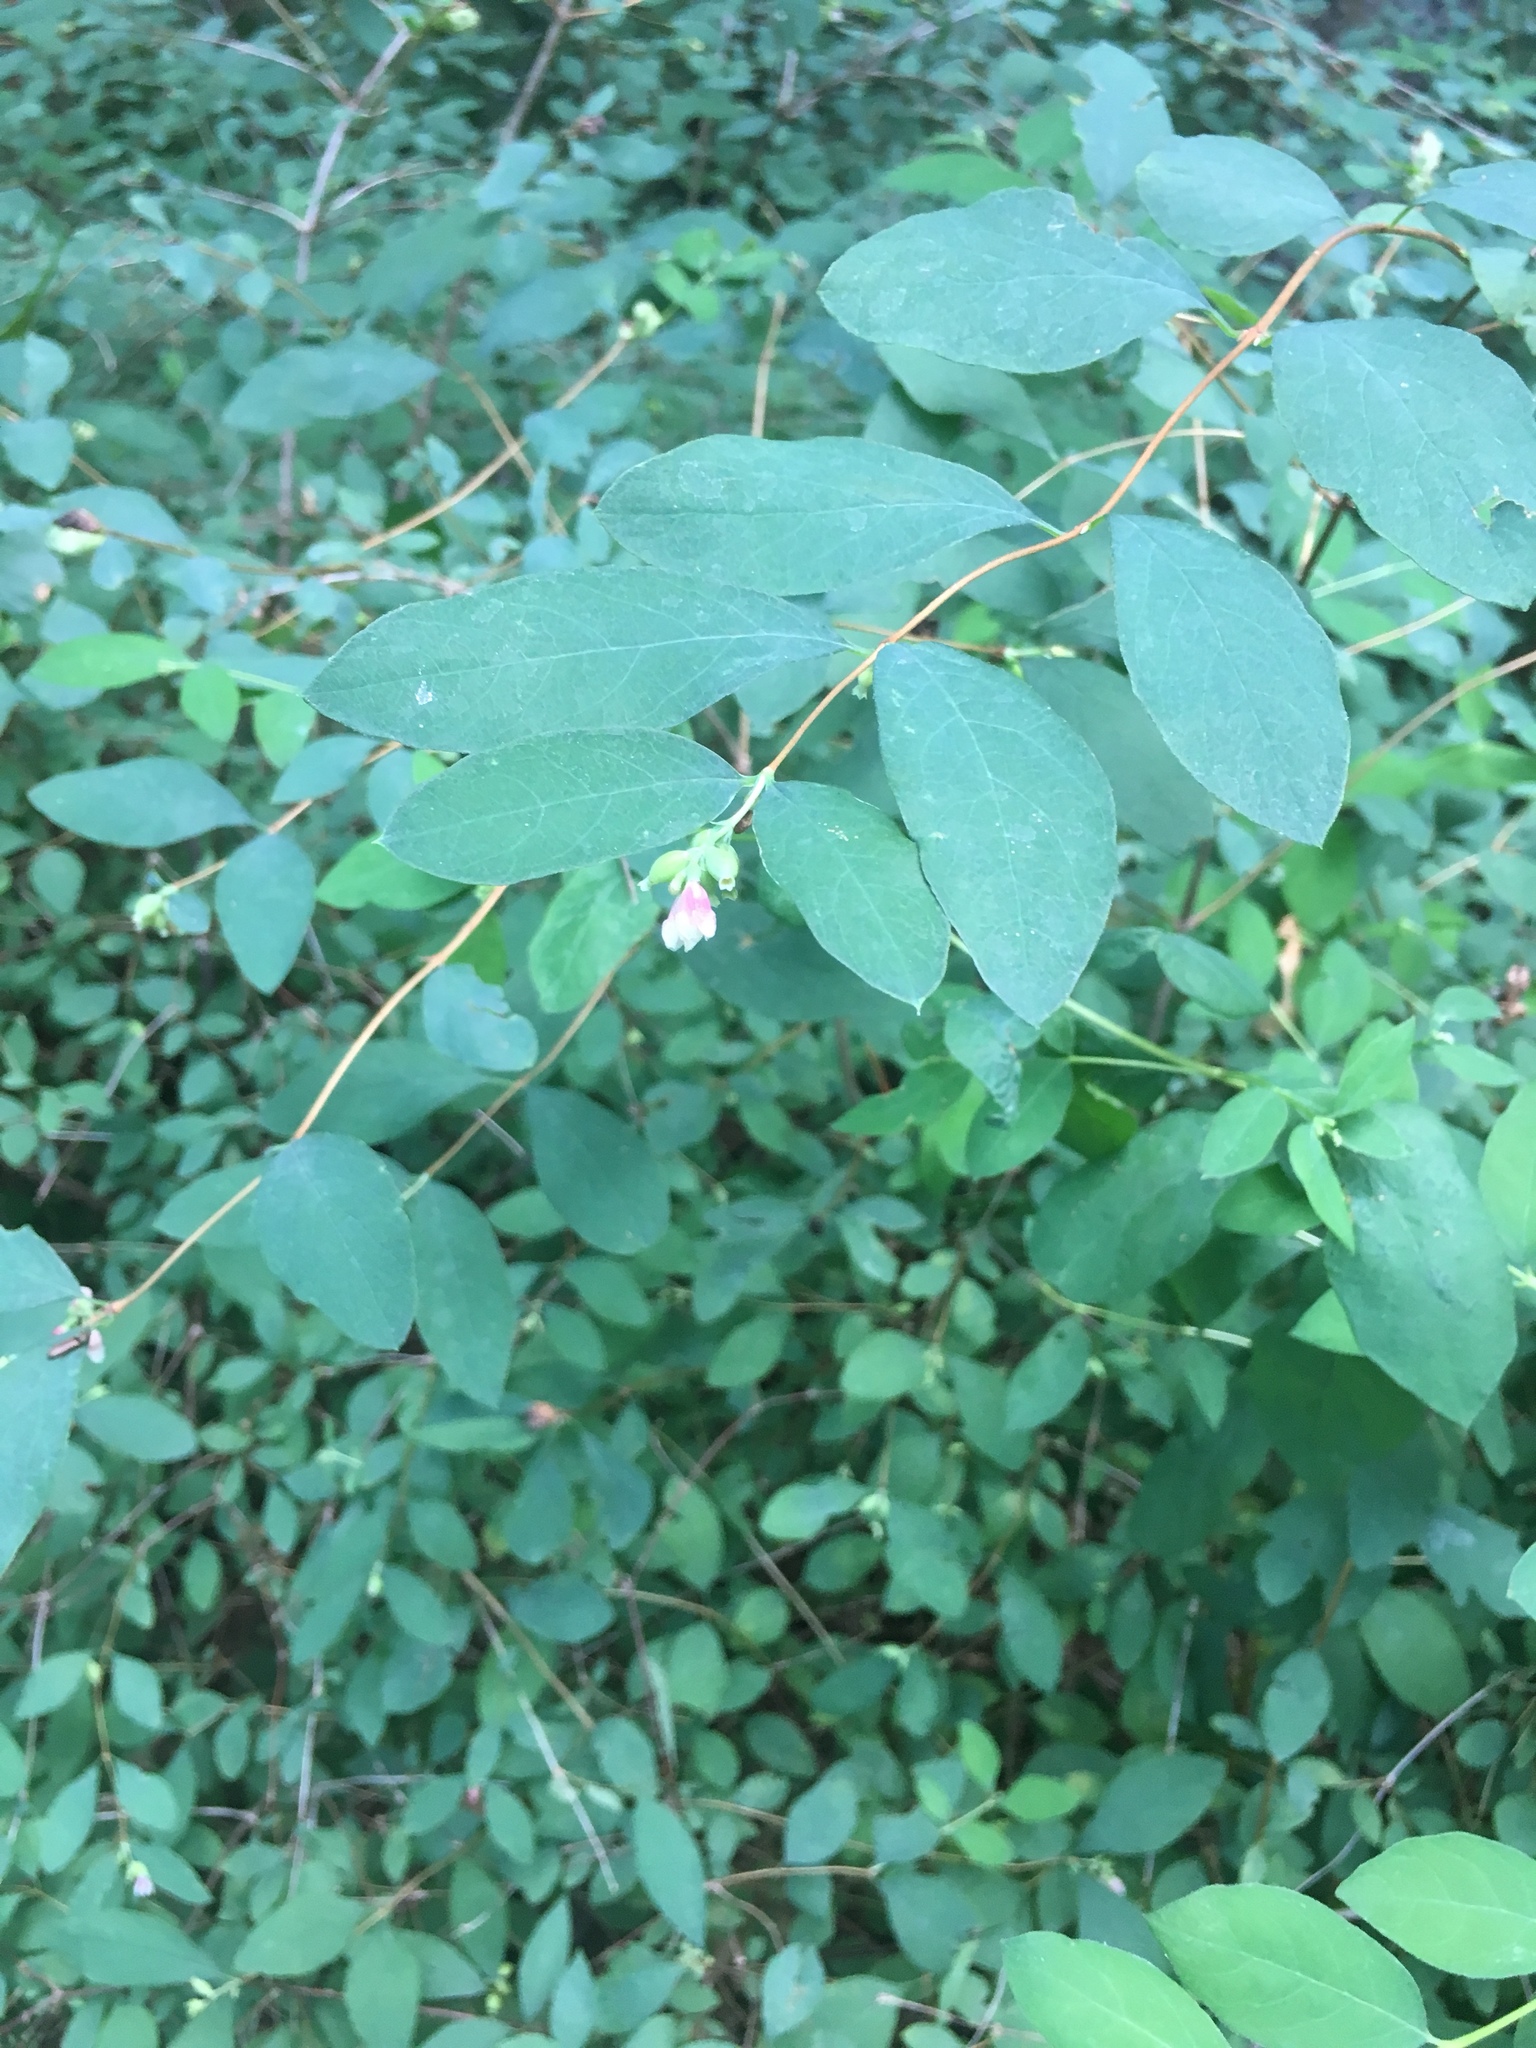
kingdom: Plantae
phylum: Tracheophyta
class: Magnoliopsida
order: Dipsacales
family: Caprifoliaceae
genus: Symphoricarpos
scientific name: Symphoricarpos albus
